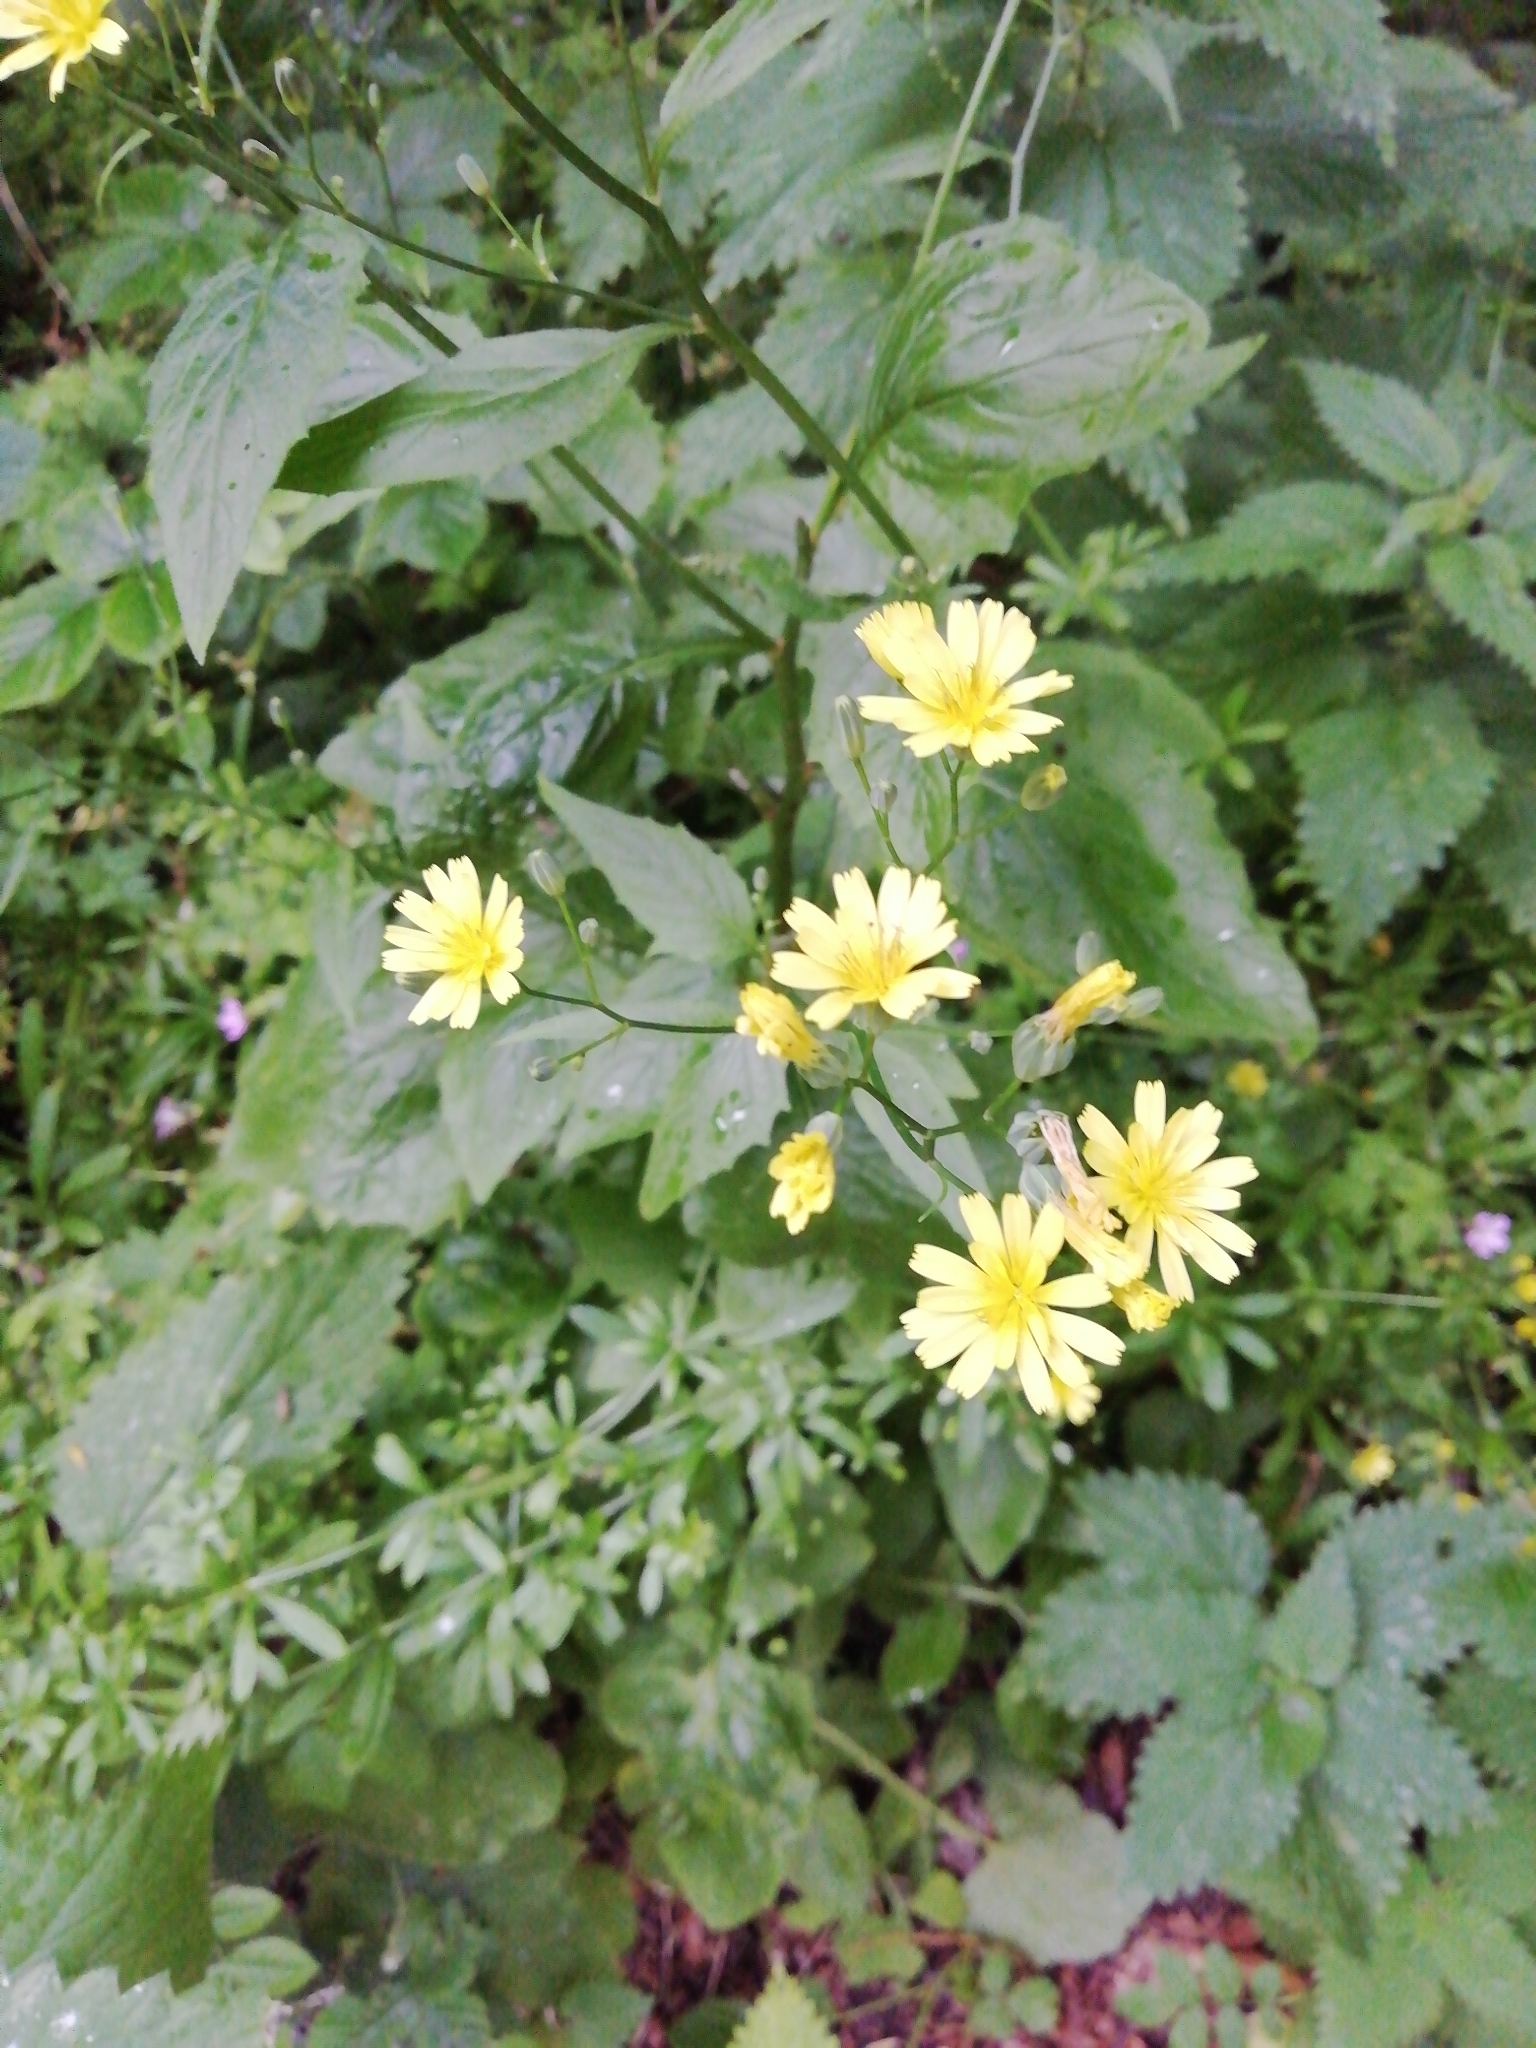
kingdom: Plantae
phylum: Tracheophyta
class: Magnoliopsida
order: Asterales
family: Asteraceae
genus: Lapsana
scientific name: Lapsana communis
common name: Nipplewort
